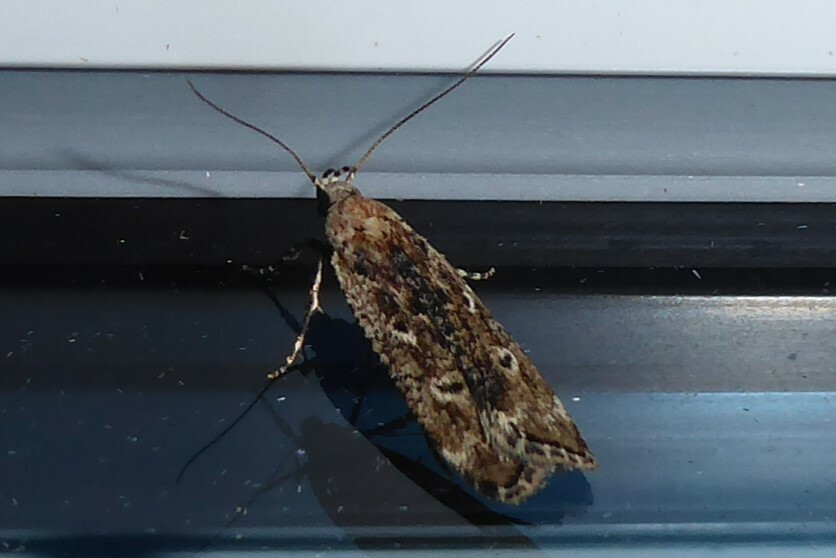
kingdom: Animalia
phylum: Arthropoda
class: Insecta
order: Lepidoptera
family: Gelechiidae
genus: Anisoplaca
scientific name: Anisoplaca achyrota
